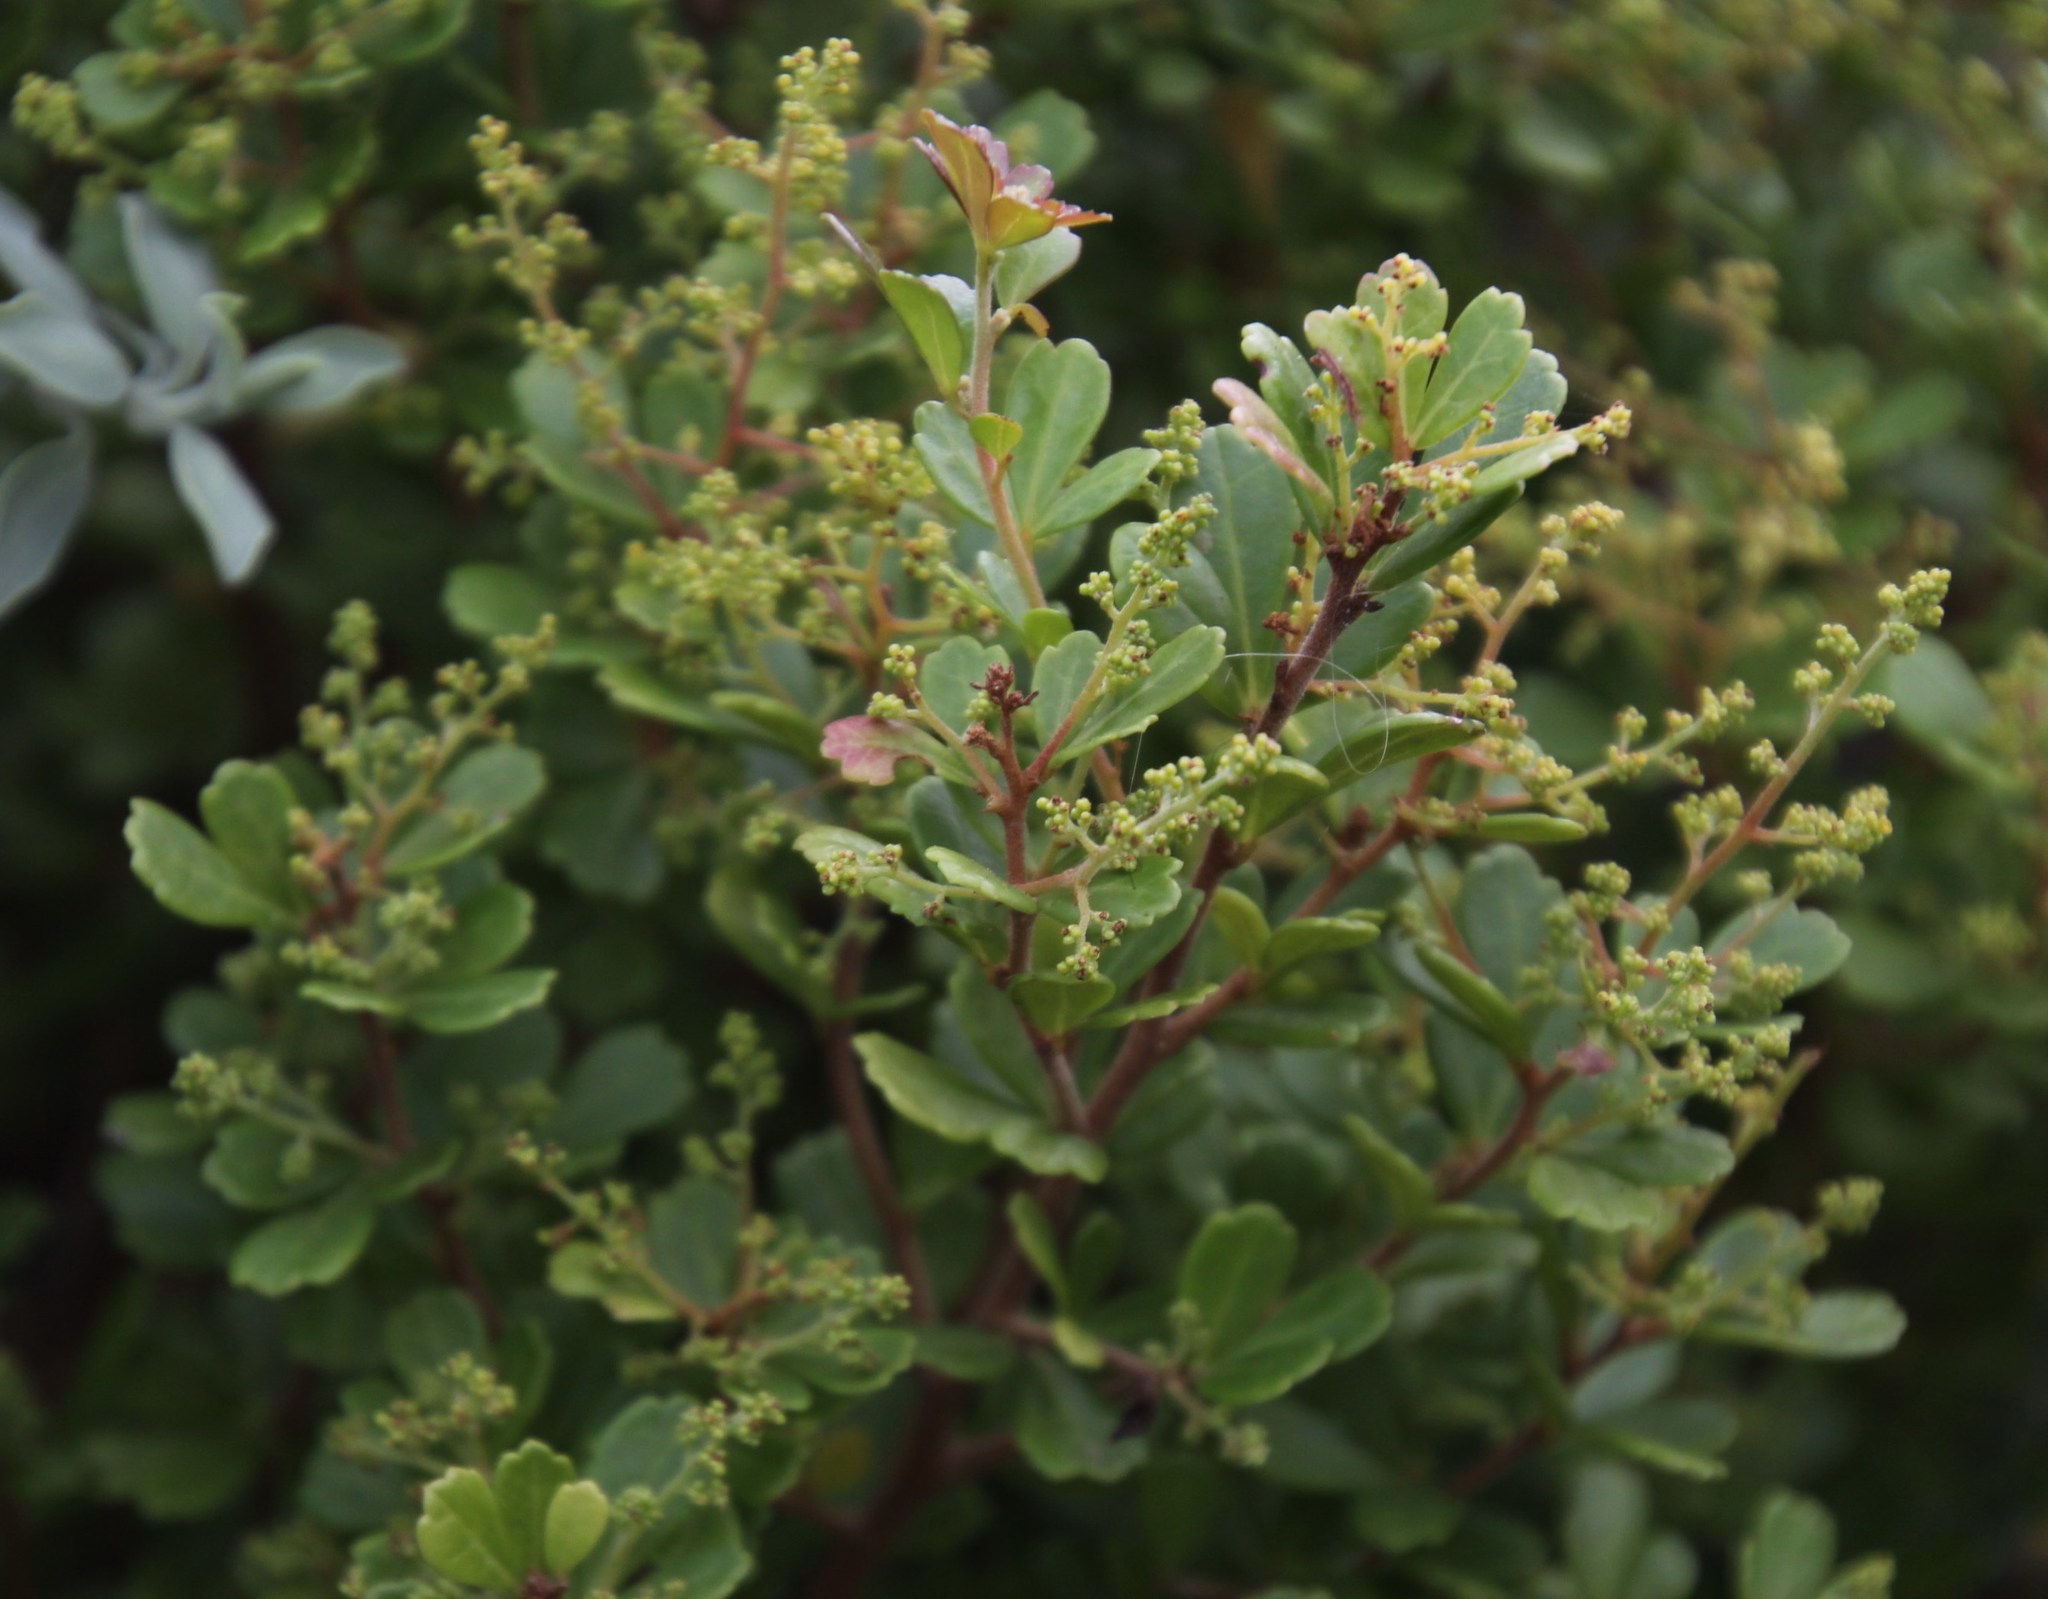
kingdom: Plantae
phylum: Tracheophyta
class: Magnoliopsida
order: Sapindales
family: Anacardiaceae
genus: Searsia
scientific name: Searsia crenata
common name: Crowberry
